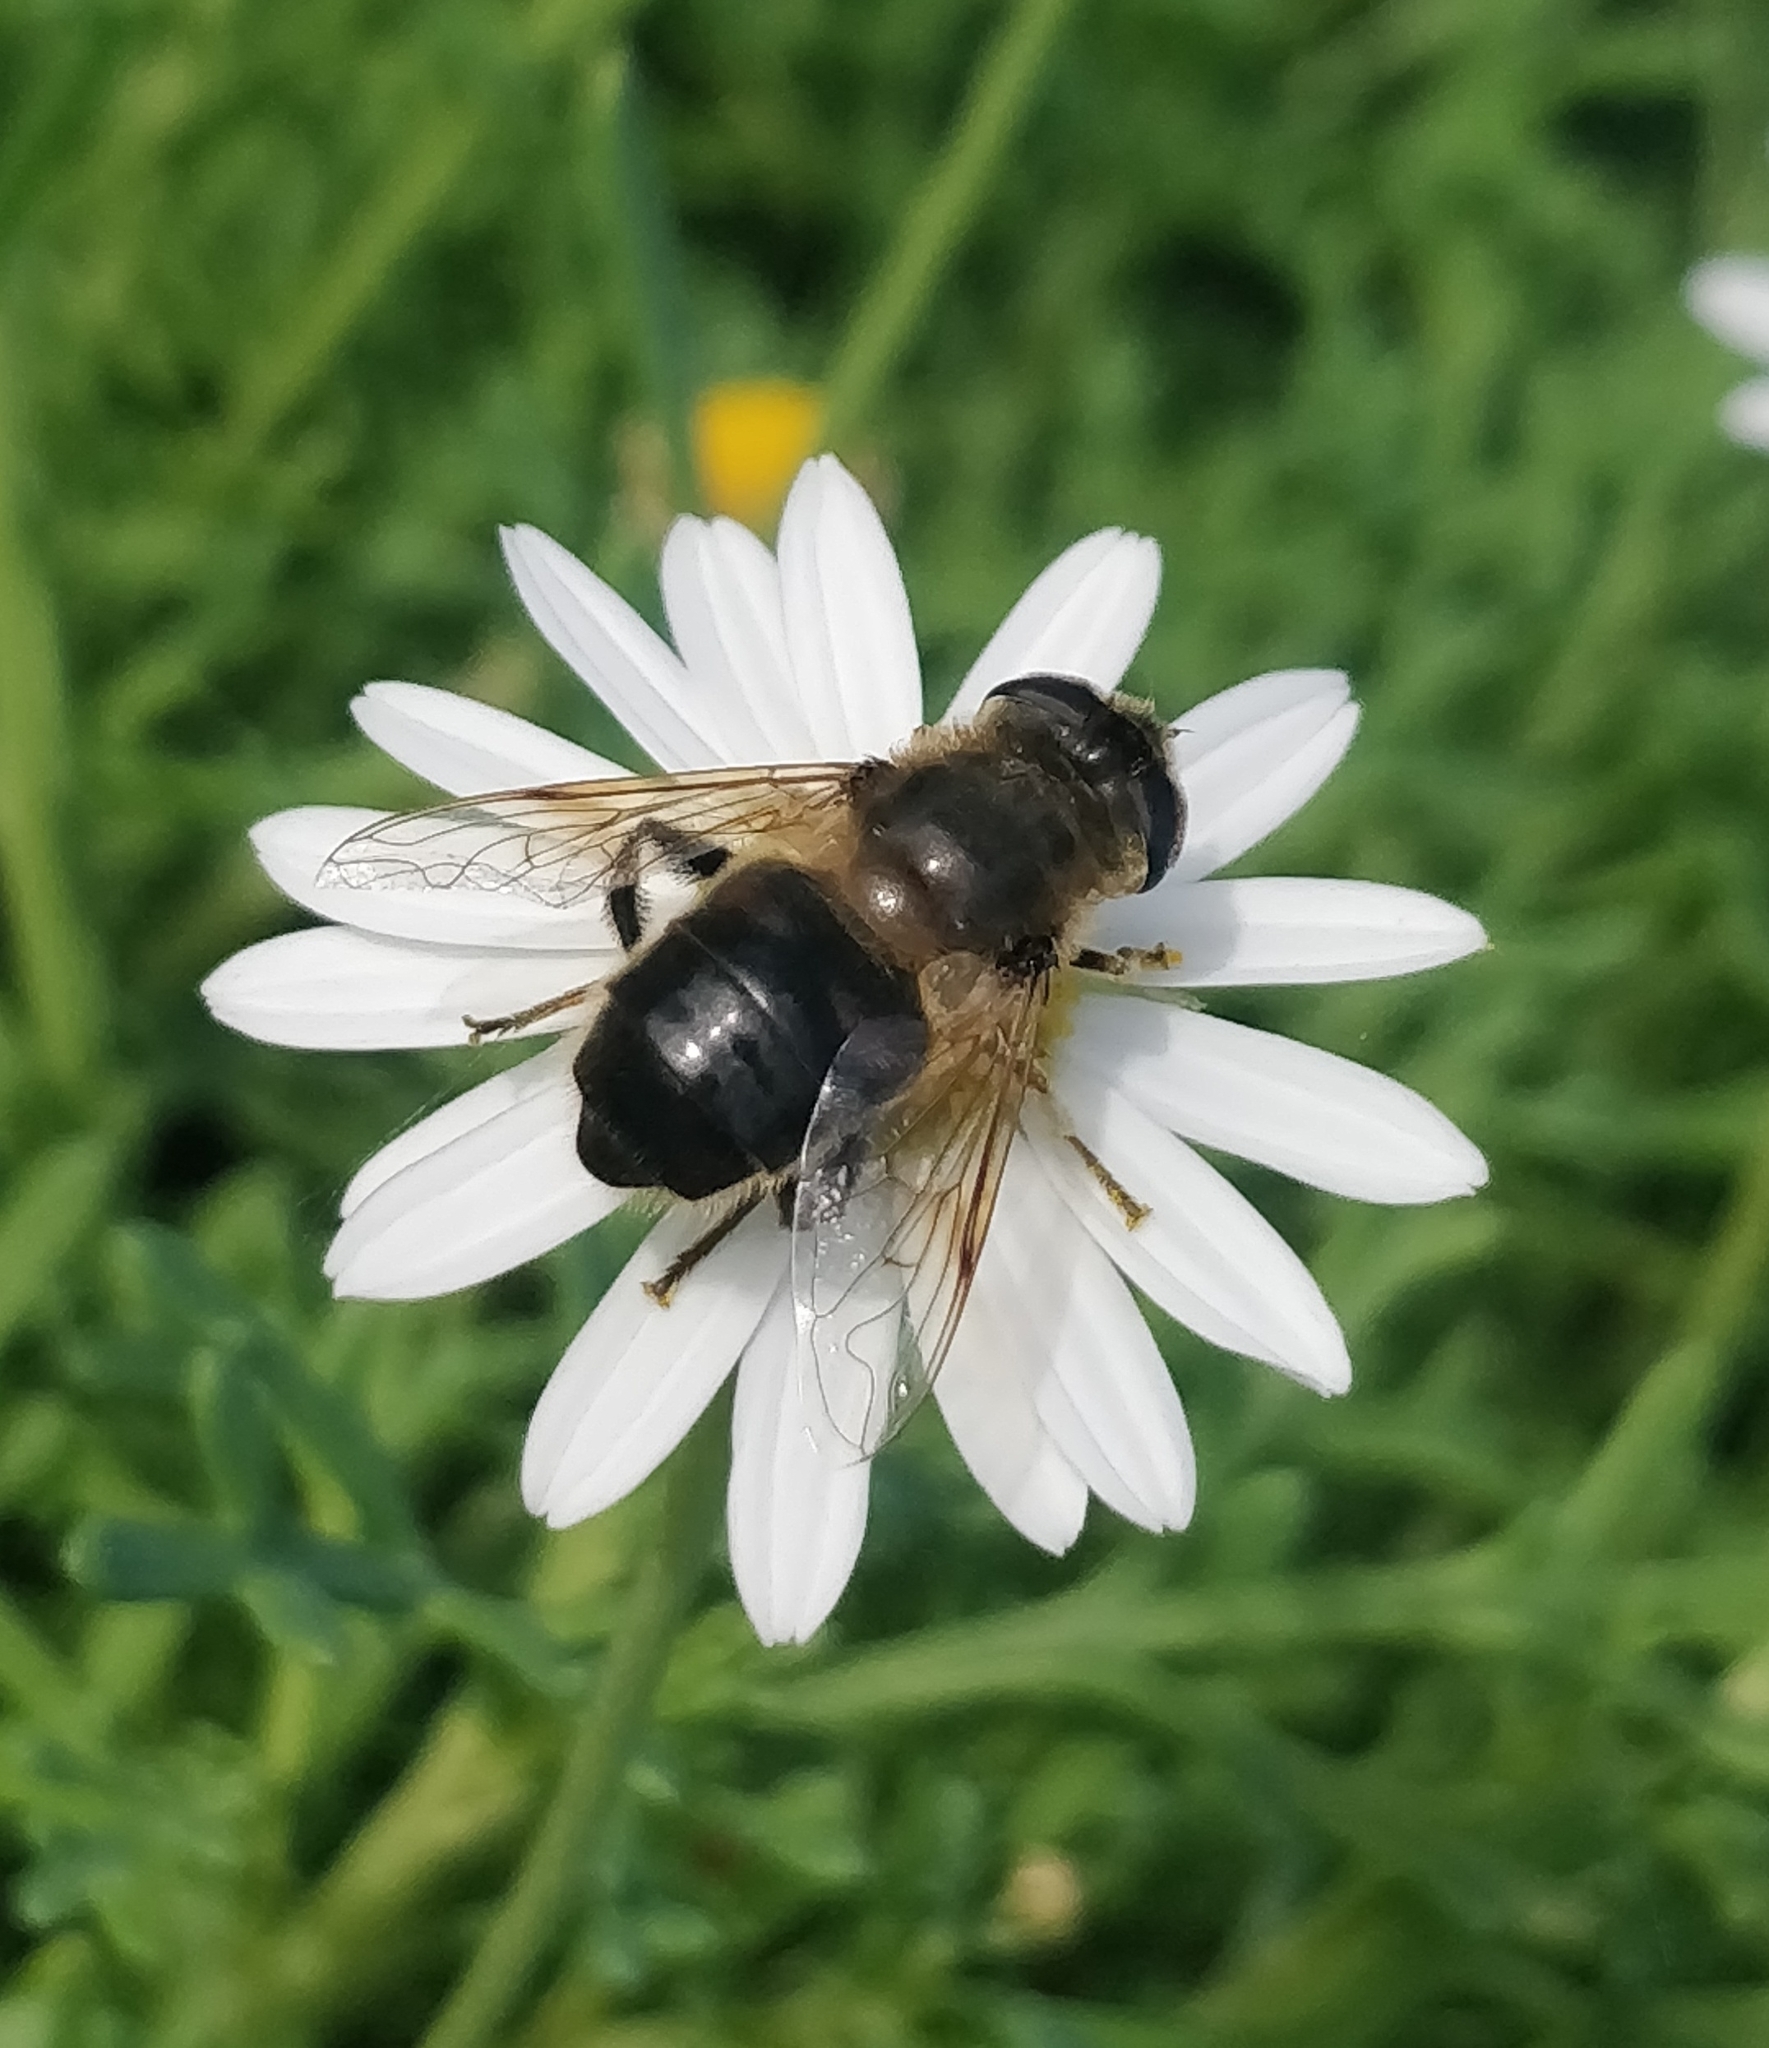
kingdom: Animalia
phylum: Arthropoda
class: Insecta
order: Diptera
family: Syrphidae
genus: Eristalis
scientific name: Eristalis tenax
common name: Drone fly
